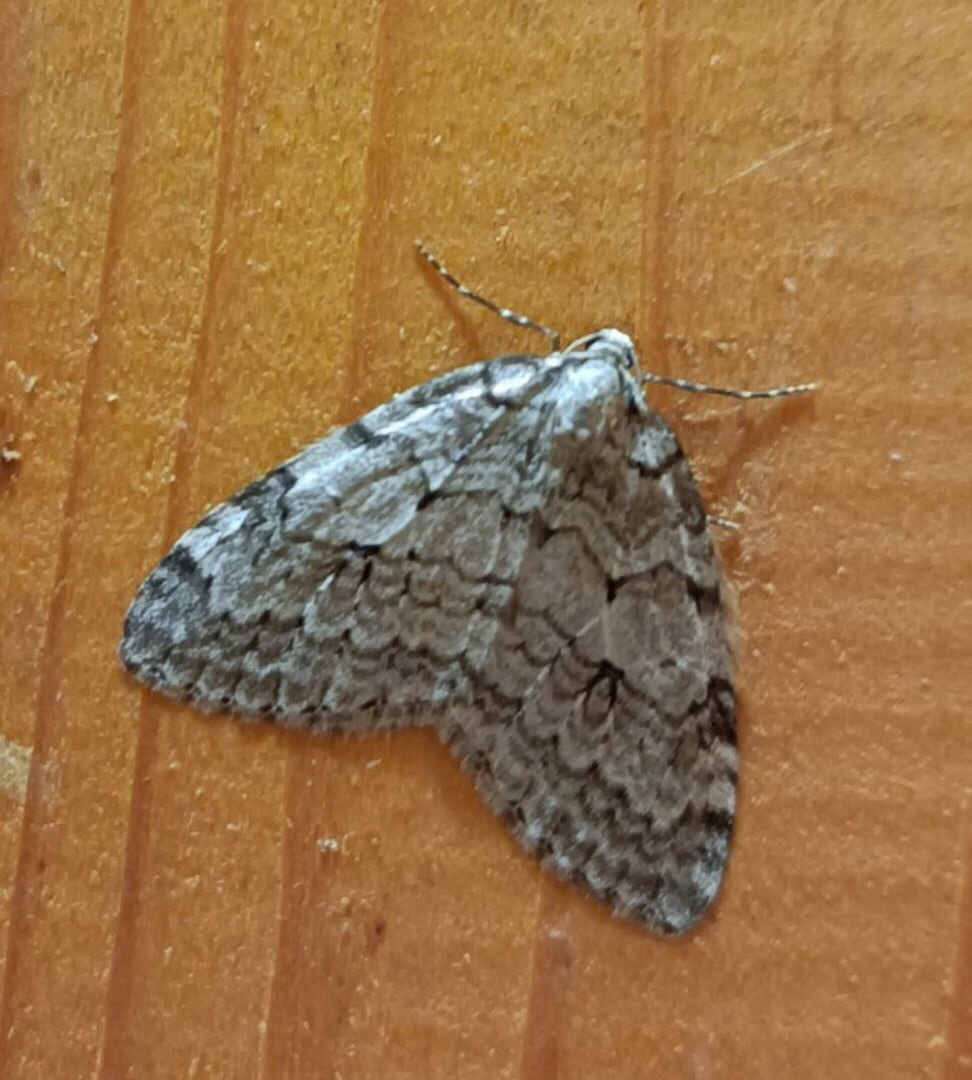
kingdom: Animalia
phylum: Arthropoda
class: Insecta
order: Lepidoptera
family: Geometridae
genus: Epirrita
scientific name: Epirrita autumnata
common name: Autumnal moth
